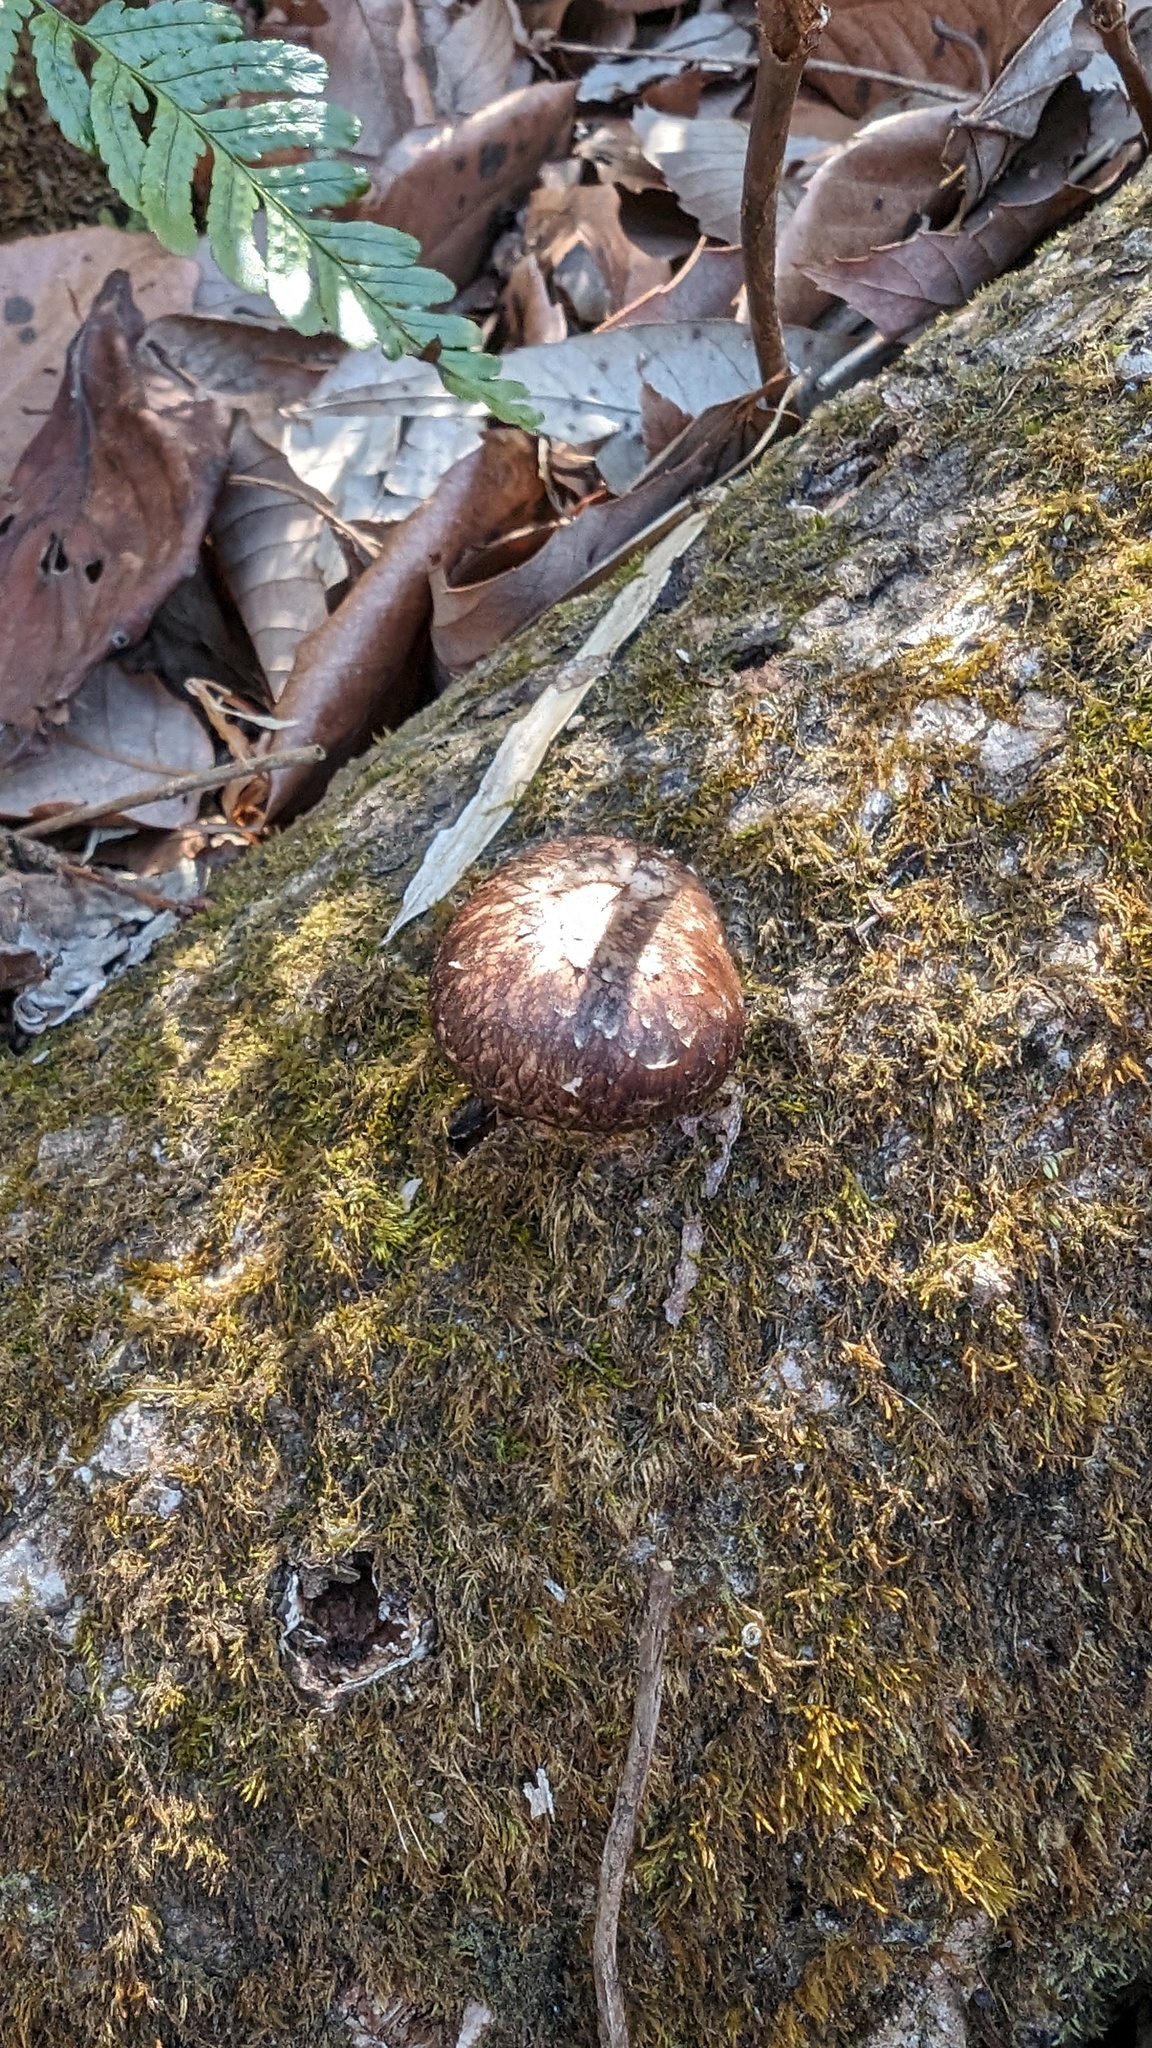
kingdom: Fungi
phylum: Basidiomycota
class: Agaricomycetes
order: Agaricales
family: Omphalotaceae
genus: Lentinula
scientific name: Lentinula edodes
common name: Shiitake
